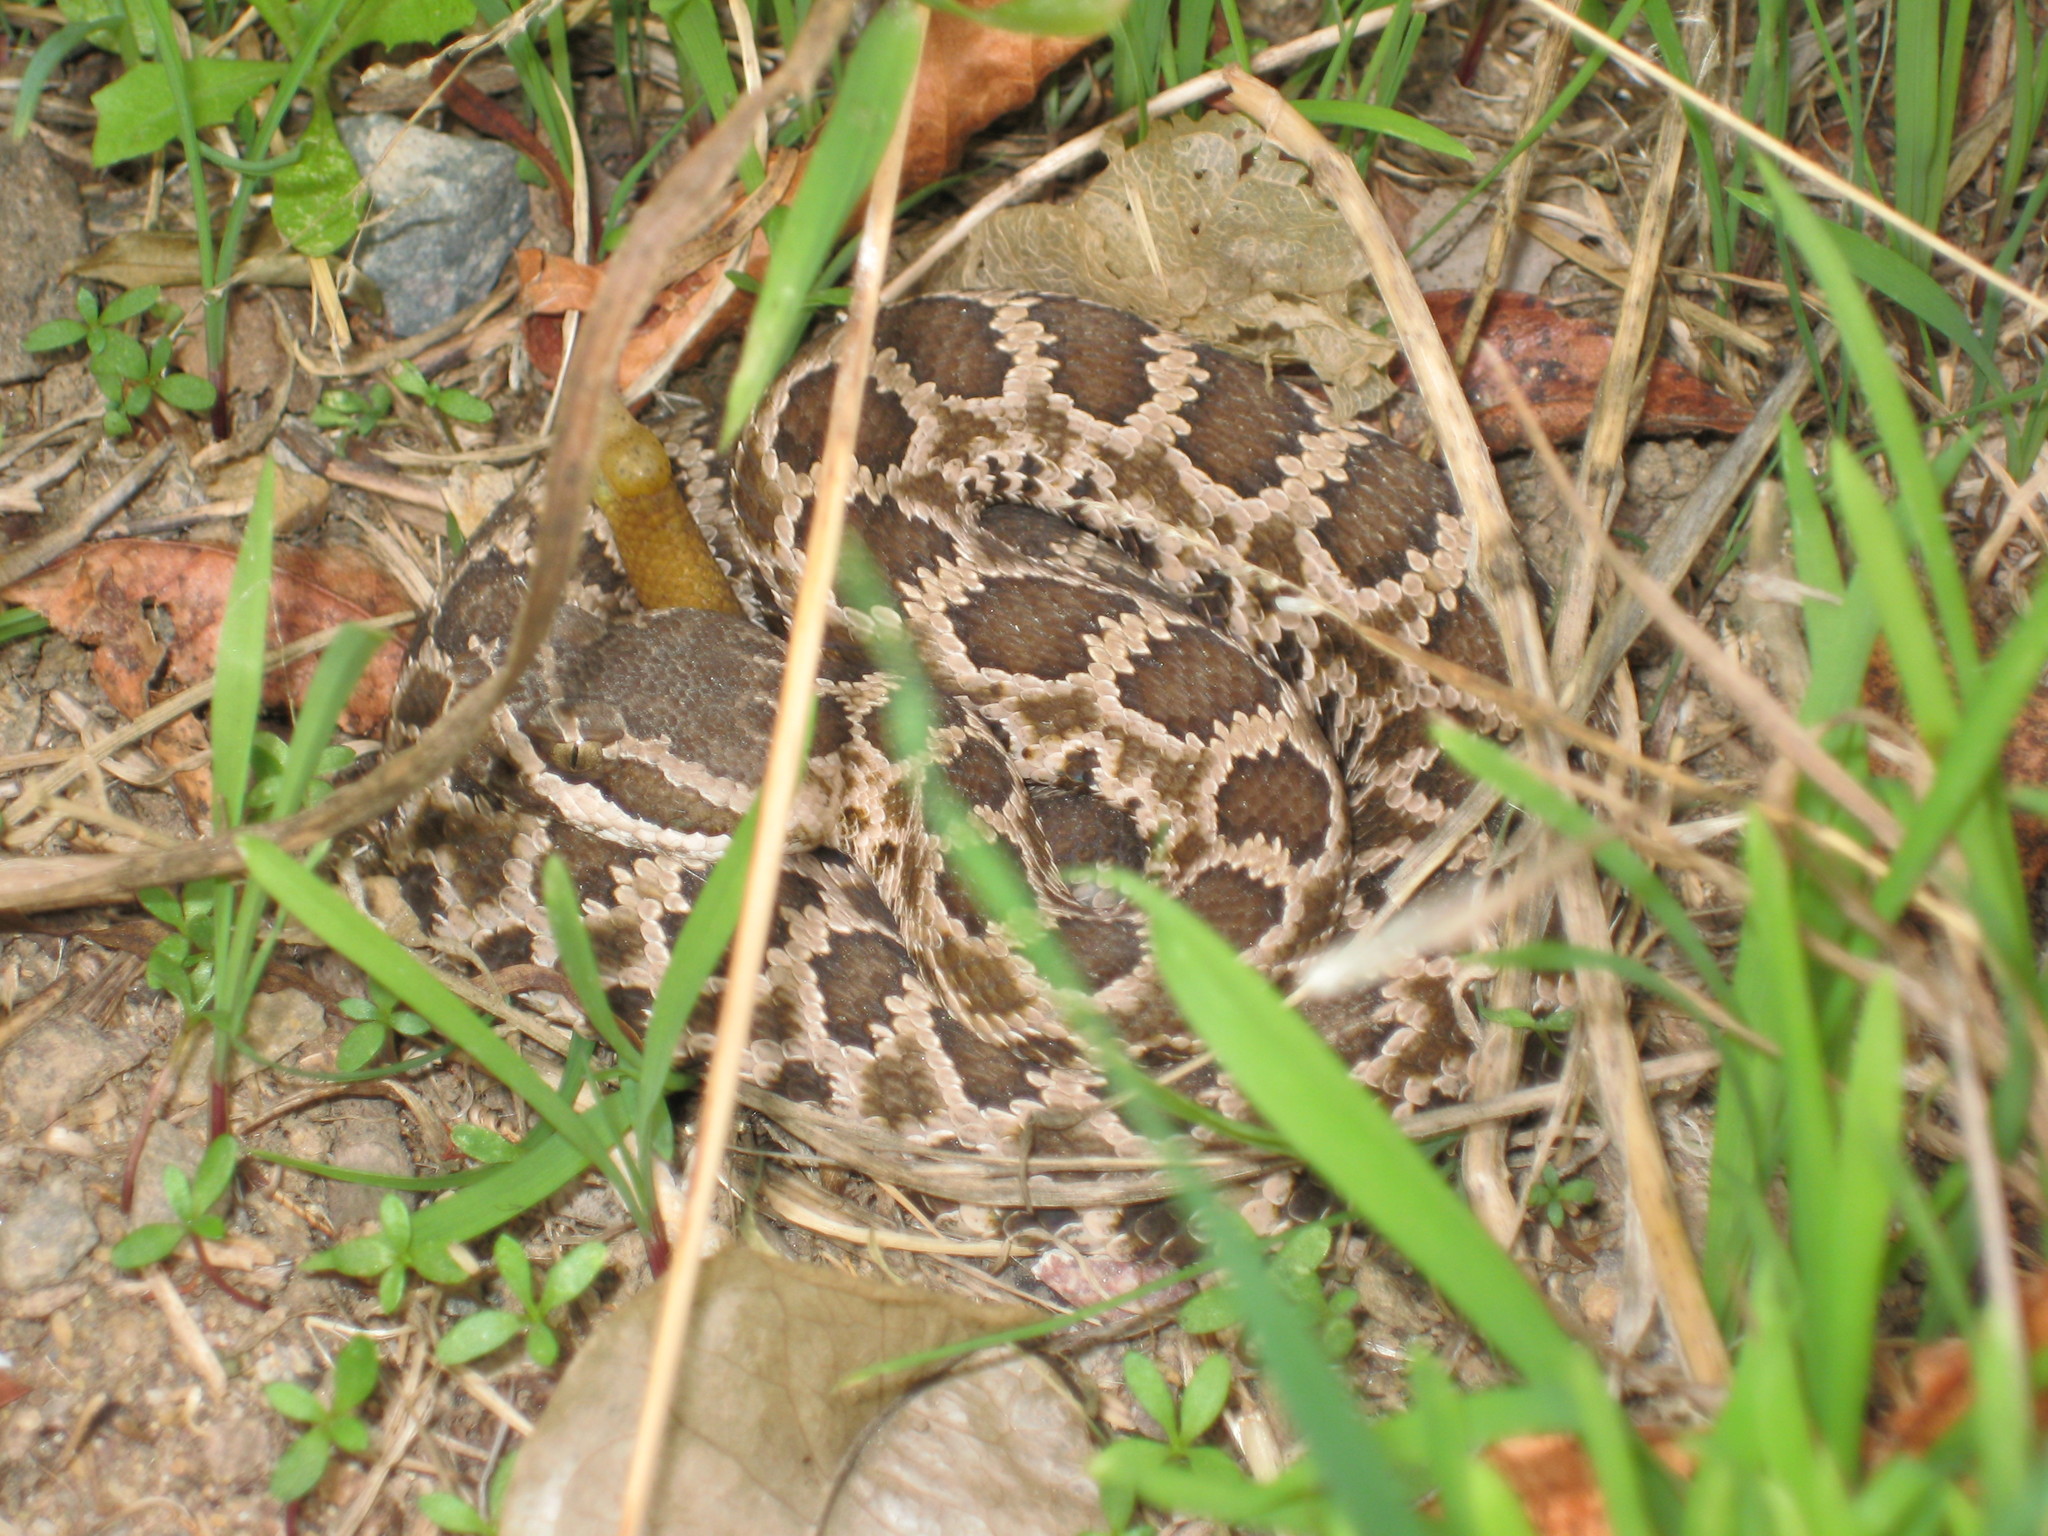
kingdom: Animalia
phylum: Chordata
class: Squamata
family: Viperidae
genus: Crotalus
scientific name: Crotalus oreganus
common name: Abyssus
